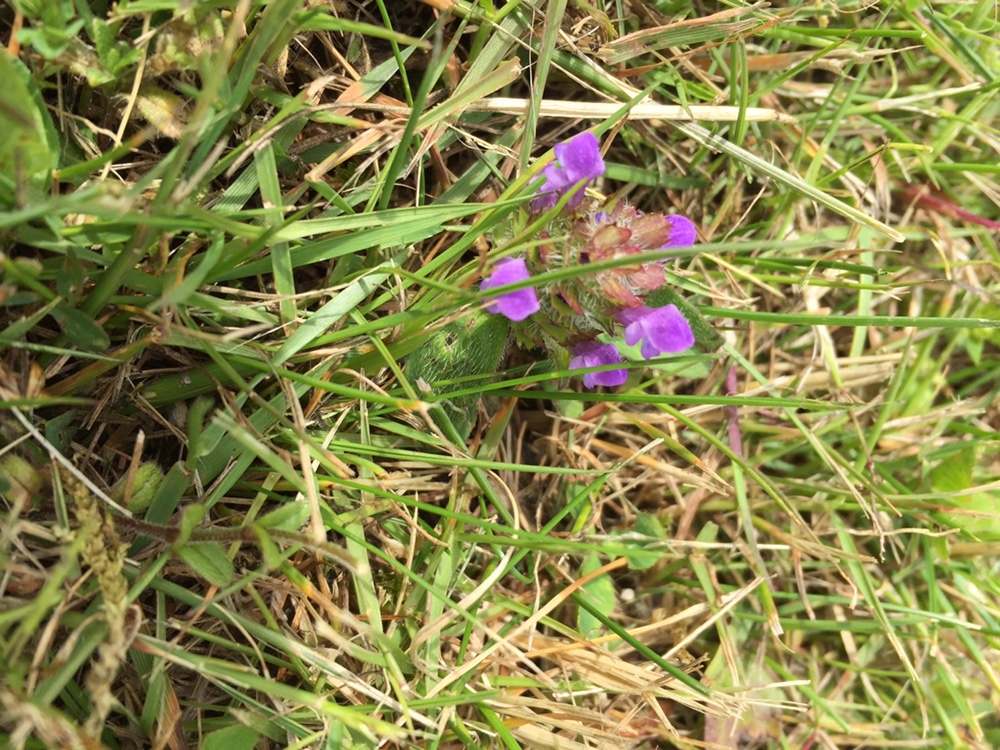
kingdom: Plantae
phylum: Tracheophyta
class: Magnoliopsida
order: Lamiales
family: Lamiaceae
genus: Prunella
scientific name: Prunella vulgaris
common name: Heal-all
